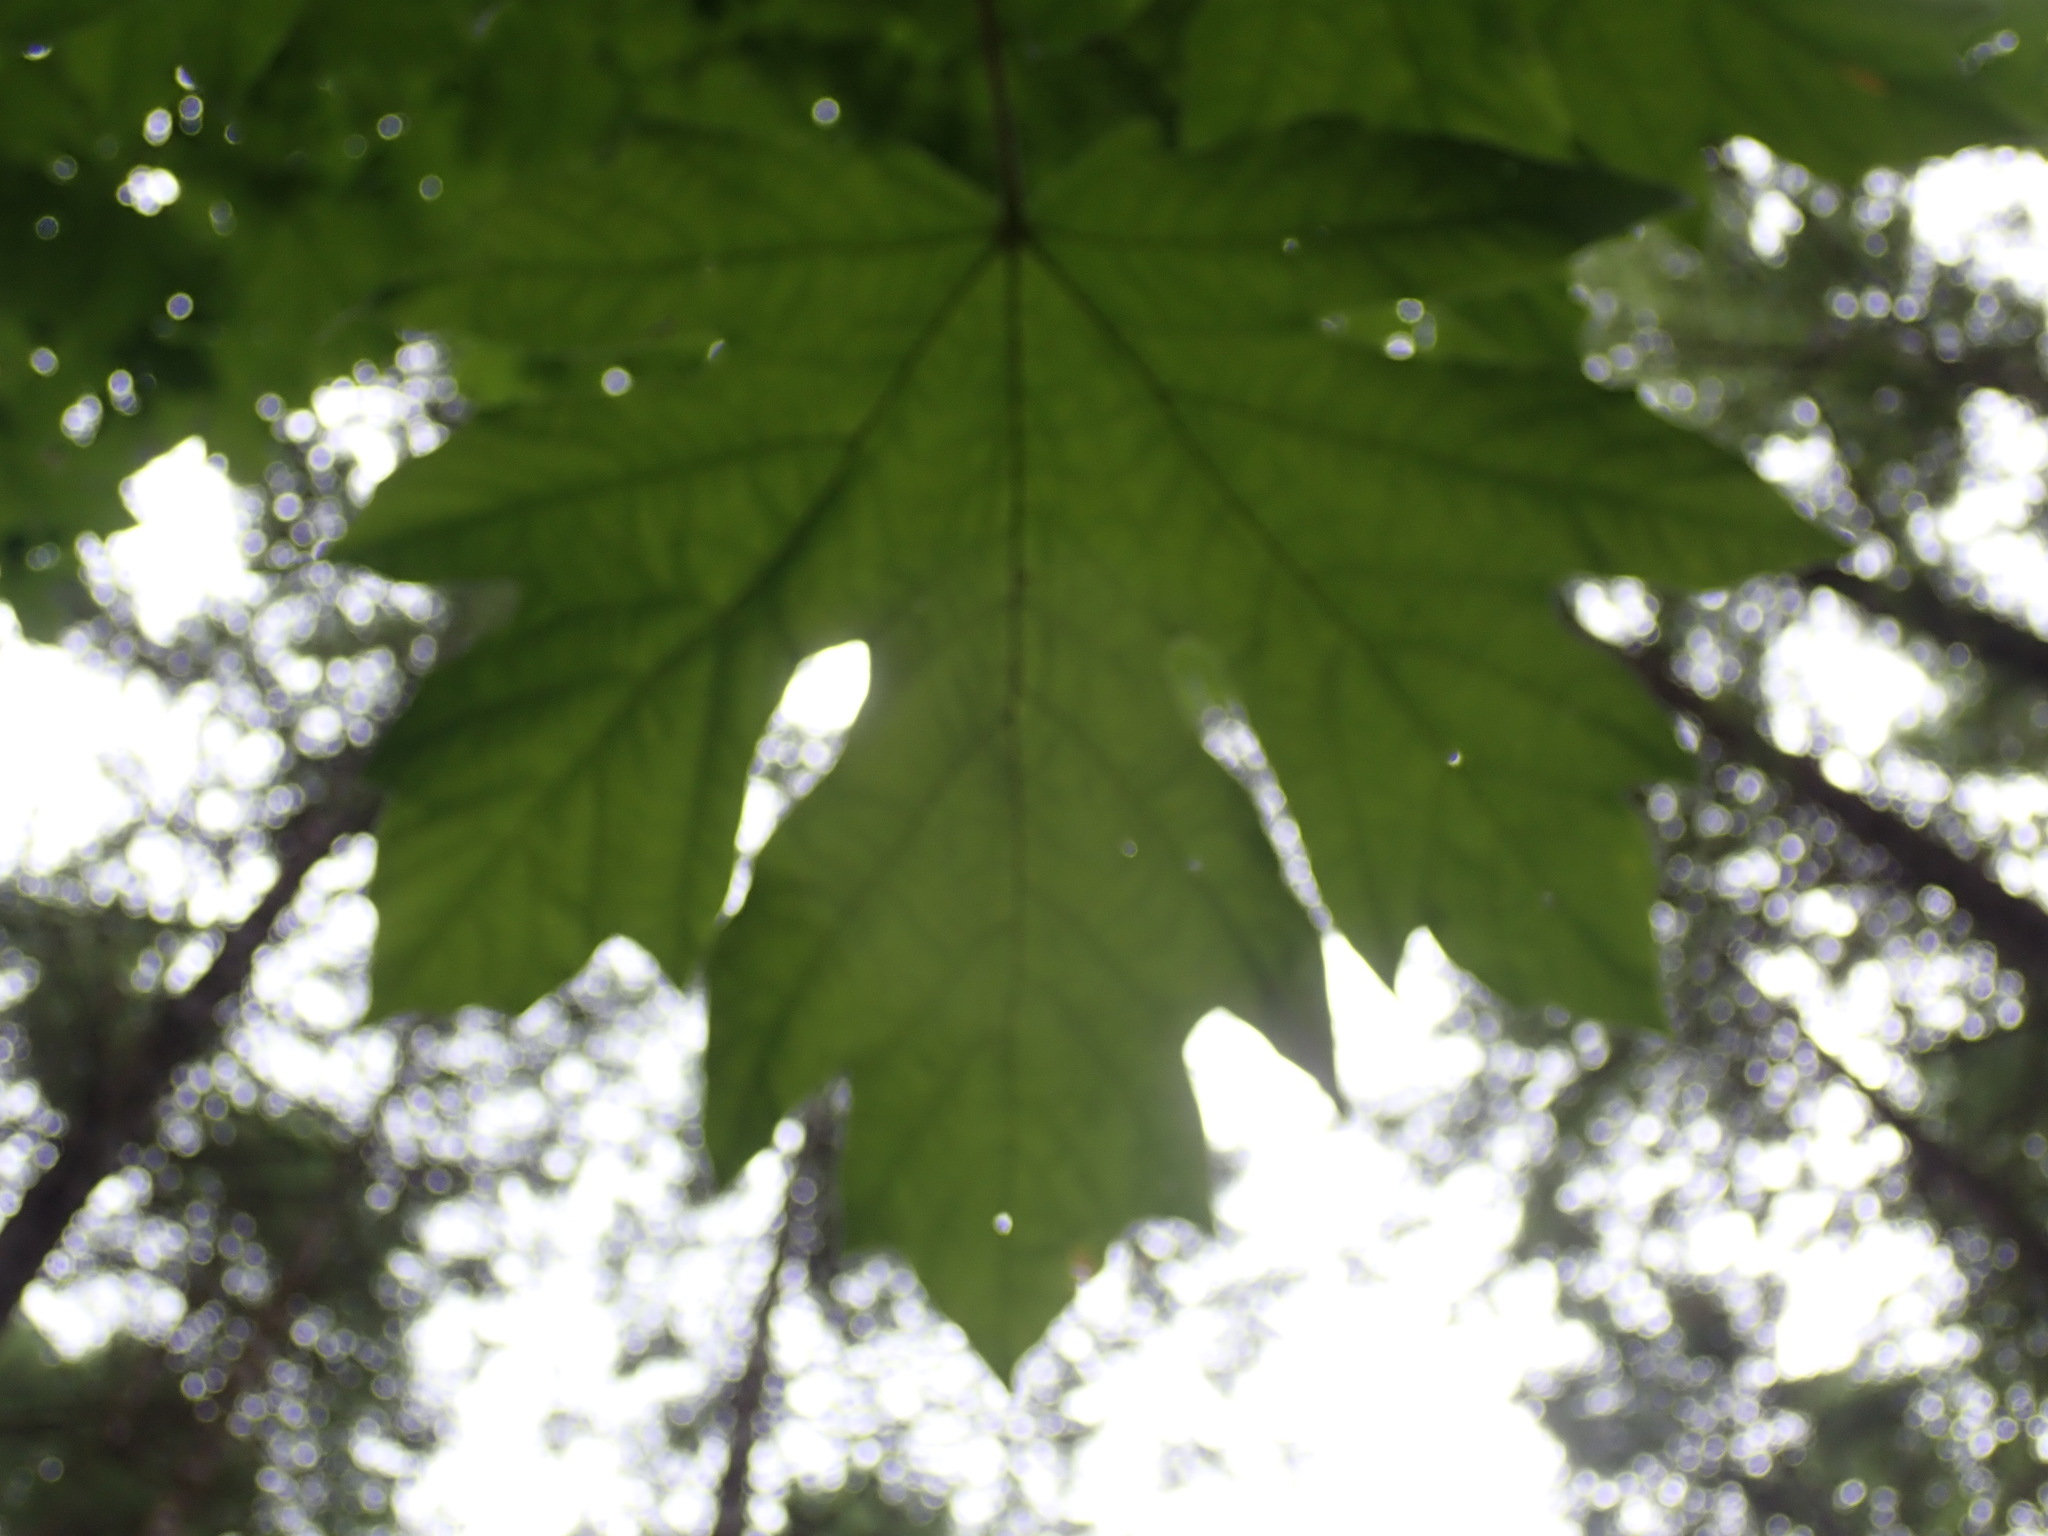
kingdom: Plantae
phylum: Tracheophyta
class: Magnoliopsida
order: Sapindales
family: Sapindaceae
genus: Acer
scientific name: Acer macrophyllum
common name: Oregon maple
